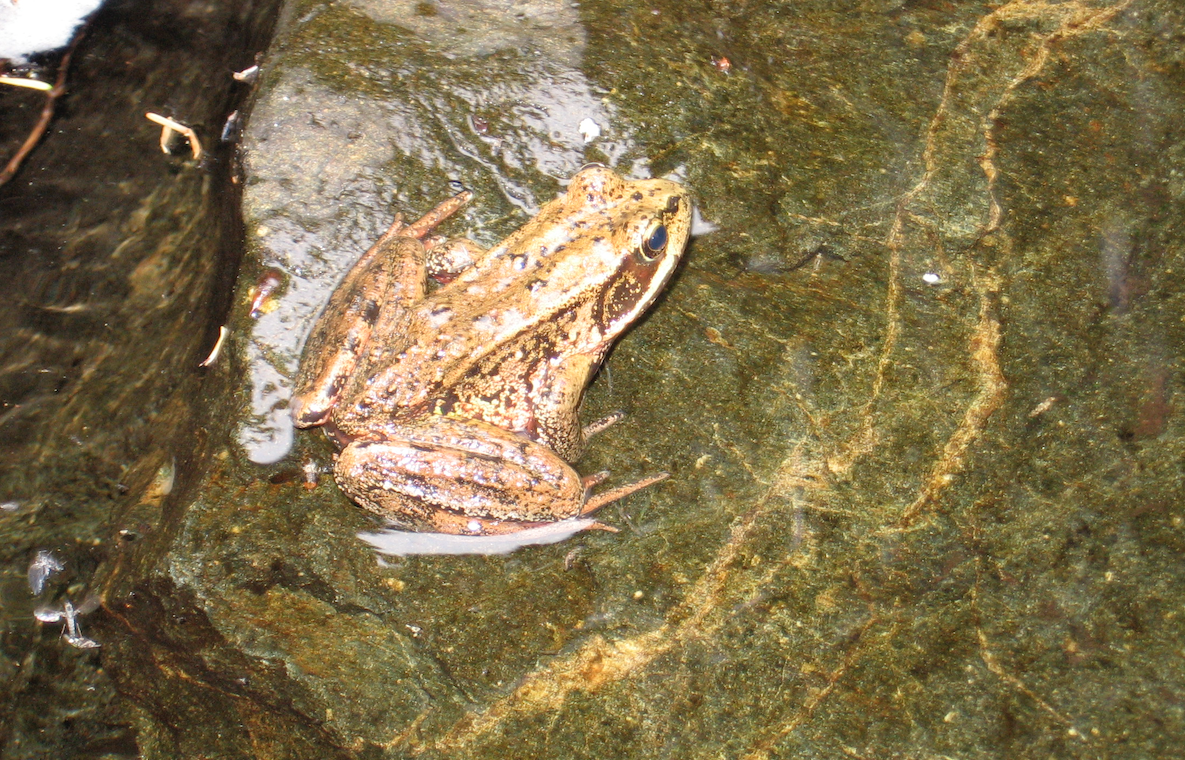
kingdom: Animalia
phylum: Chordata
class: Amphibia
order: Anura
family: Ranidae
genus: Rana
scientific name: Rana aurora
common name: Red-legged frog
